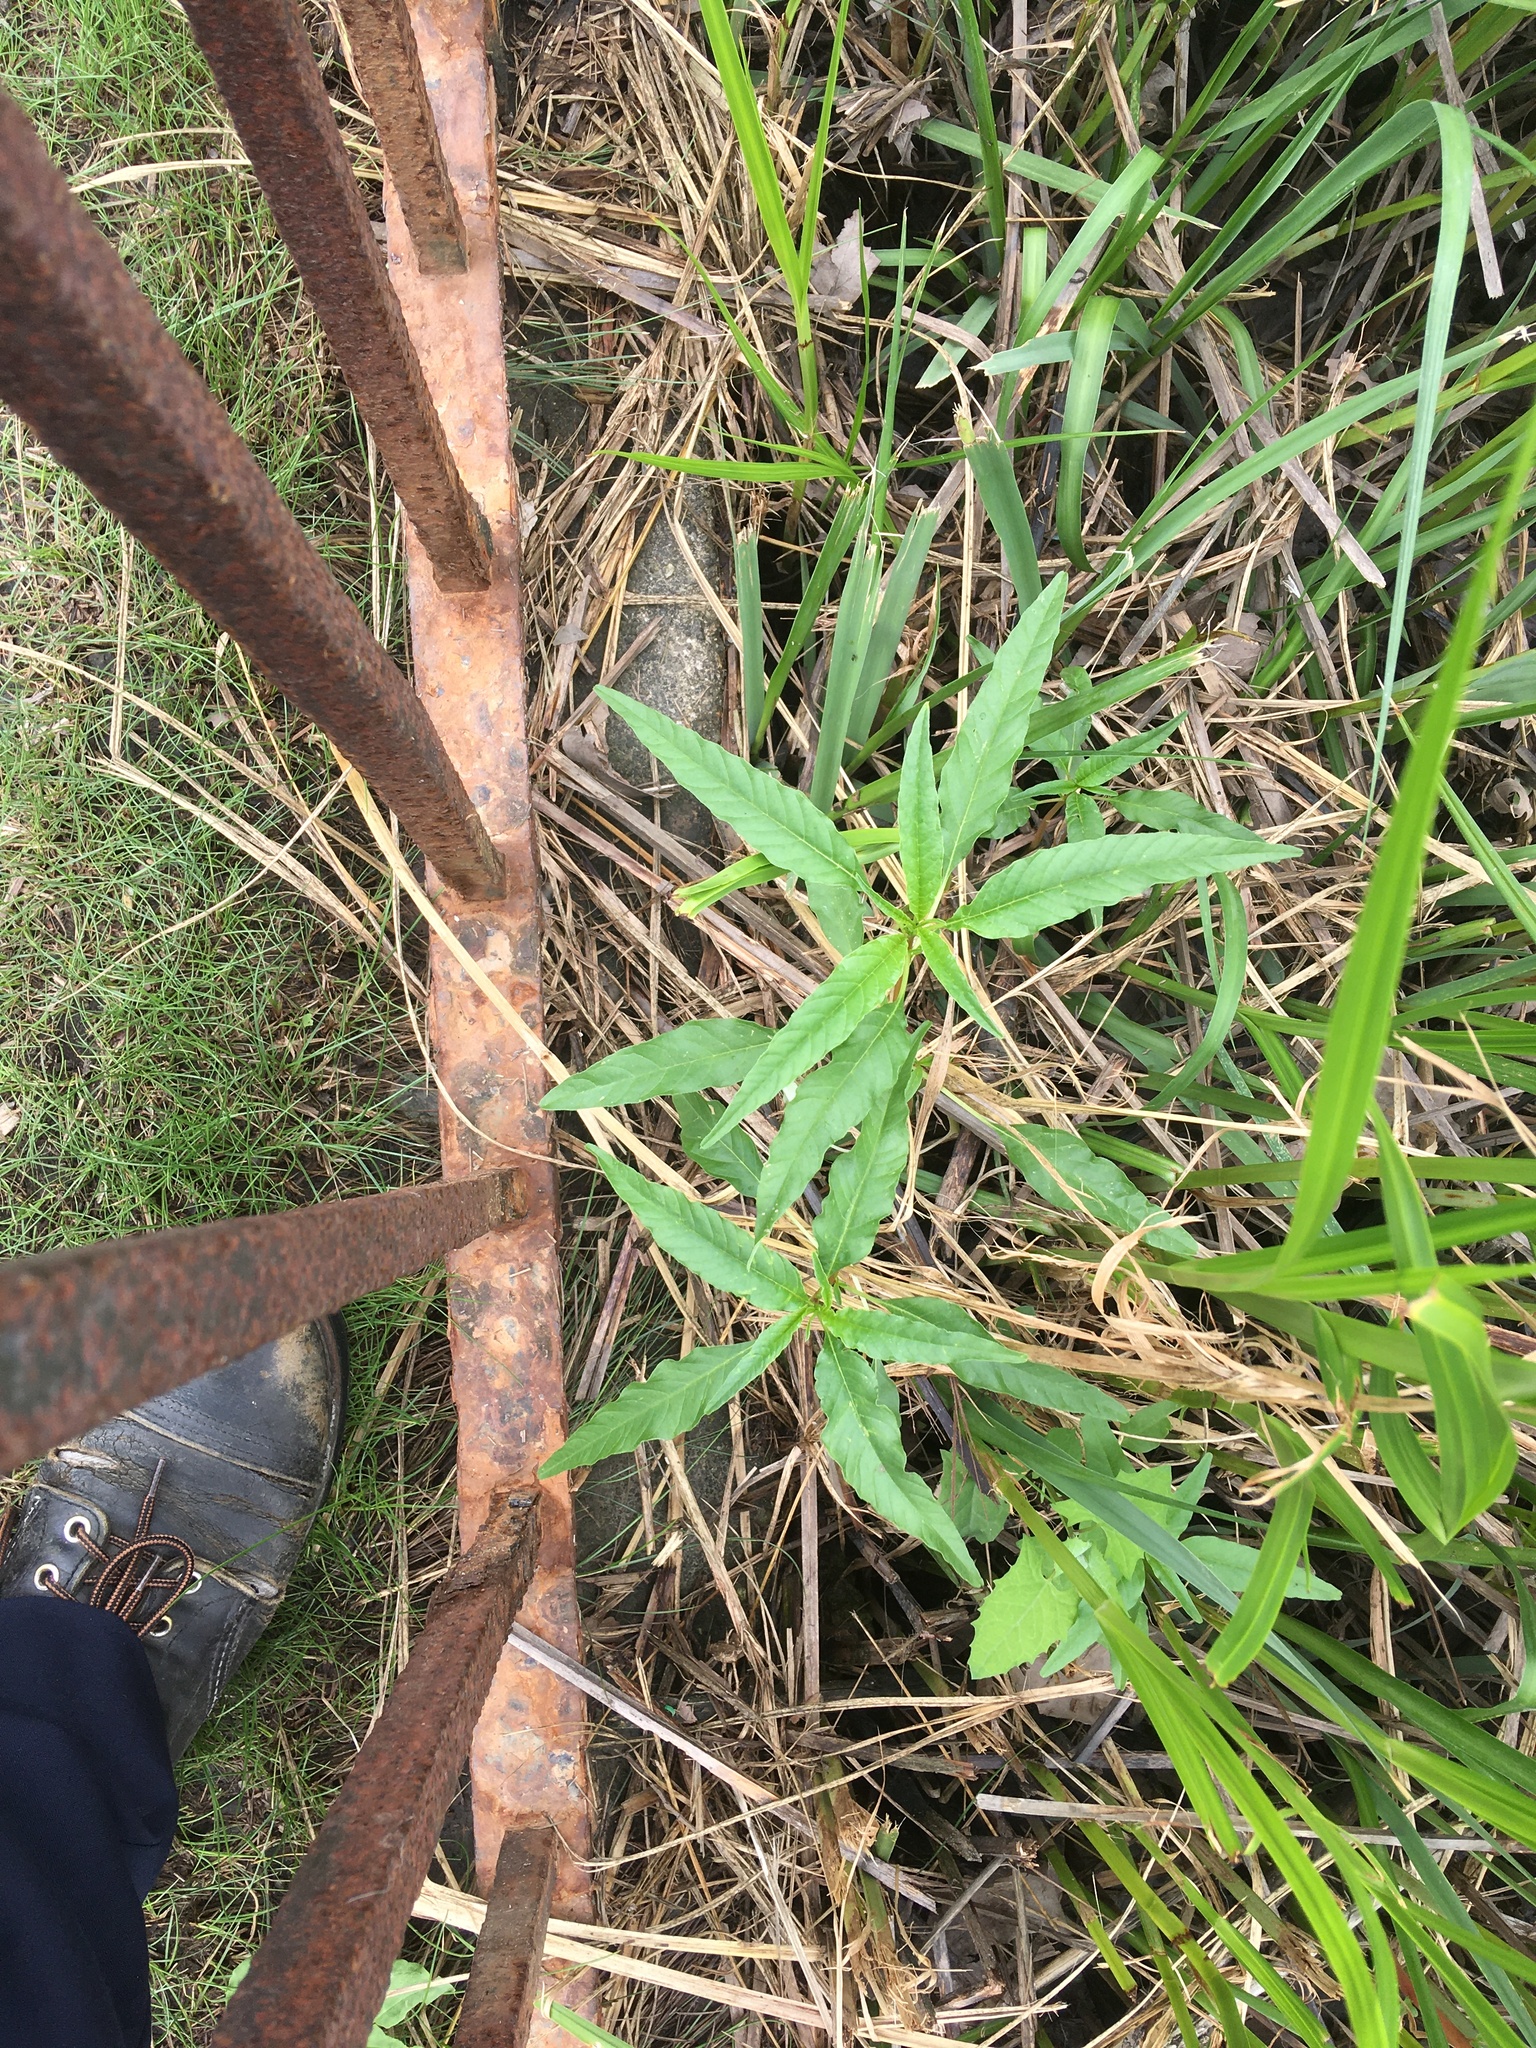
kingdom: Plantae
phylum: Tracheophyta
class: Magnoliopsida
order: Gentianales
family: Apocynaceae
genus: Apocynum
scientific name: Apocynum cannabinum
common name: Hemp dogbane
